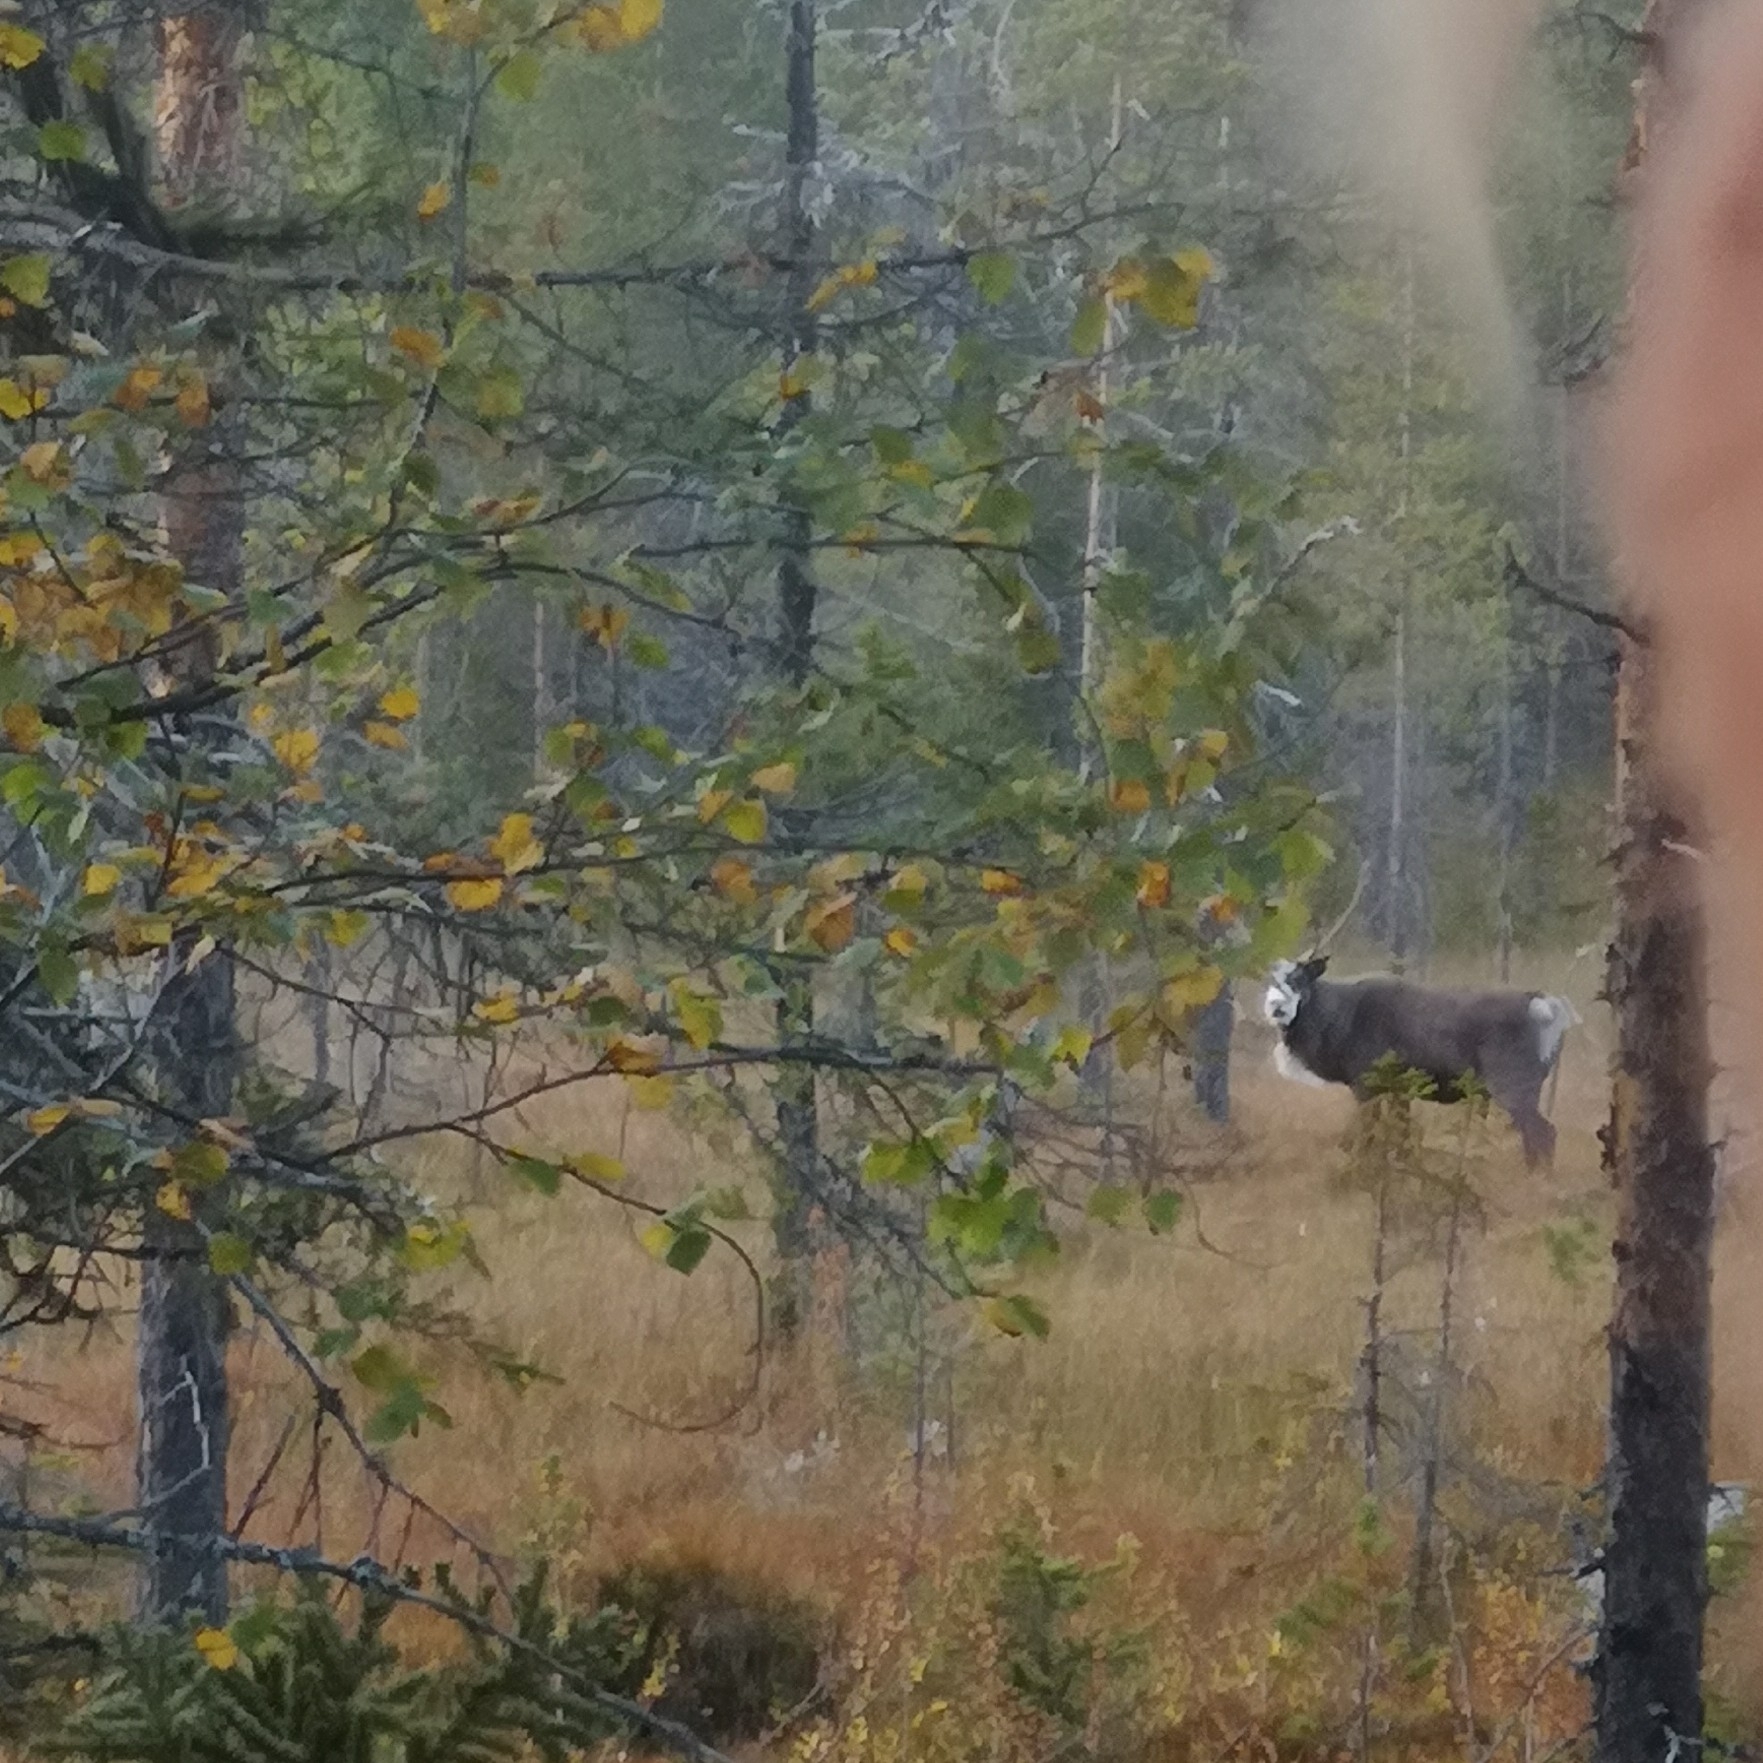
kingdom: Animalia
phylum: Chordata
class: Mammalia
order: Artiodactyla
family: Cervidae
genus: Rangifer
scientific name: Rangifer tarandus
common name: Reindeer
